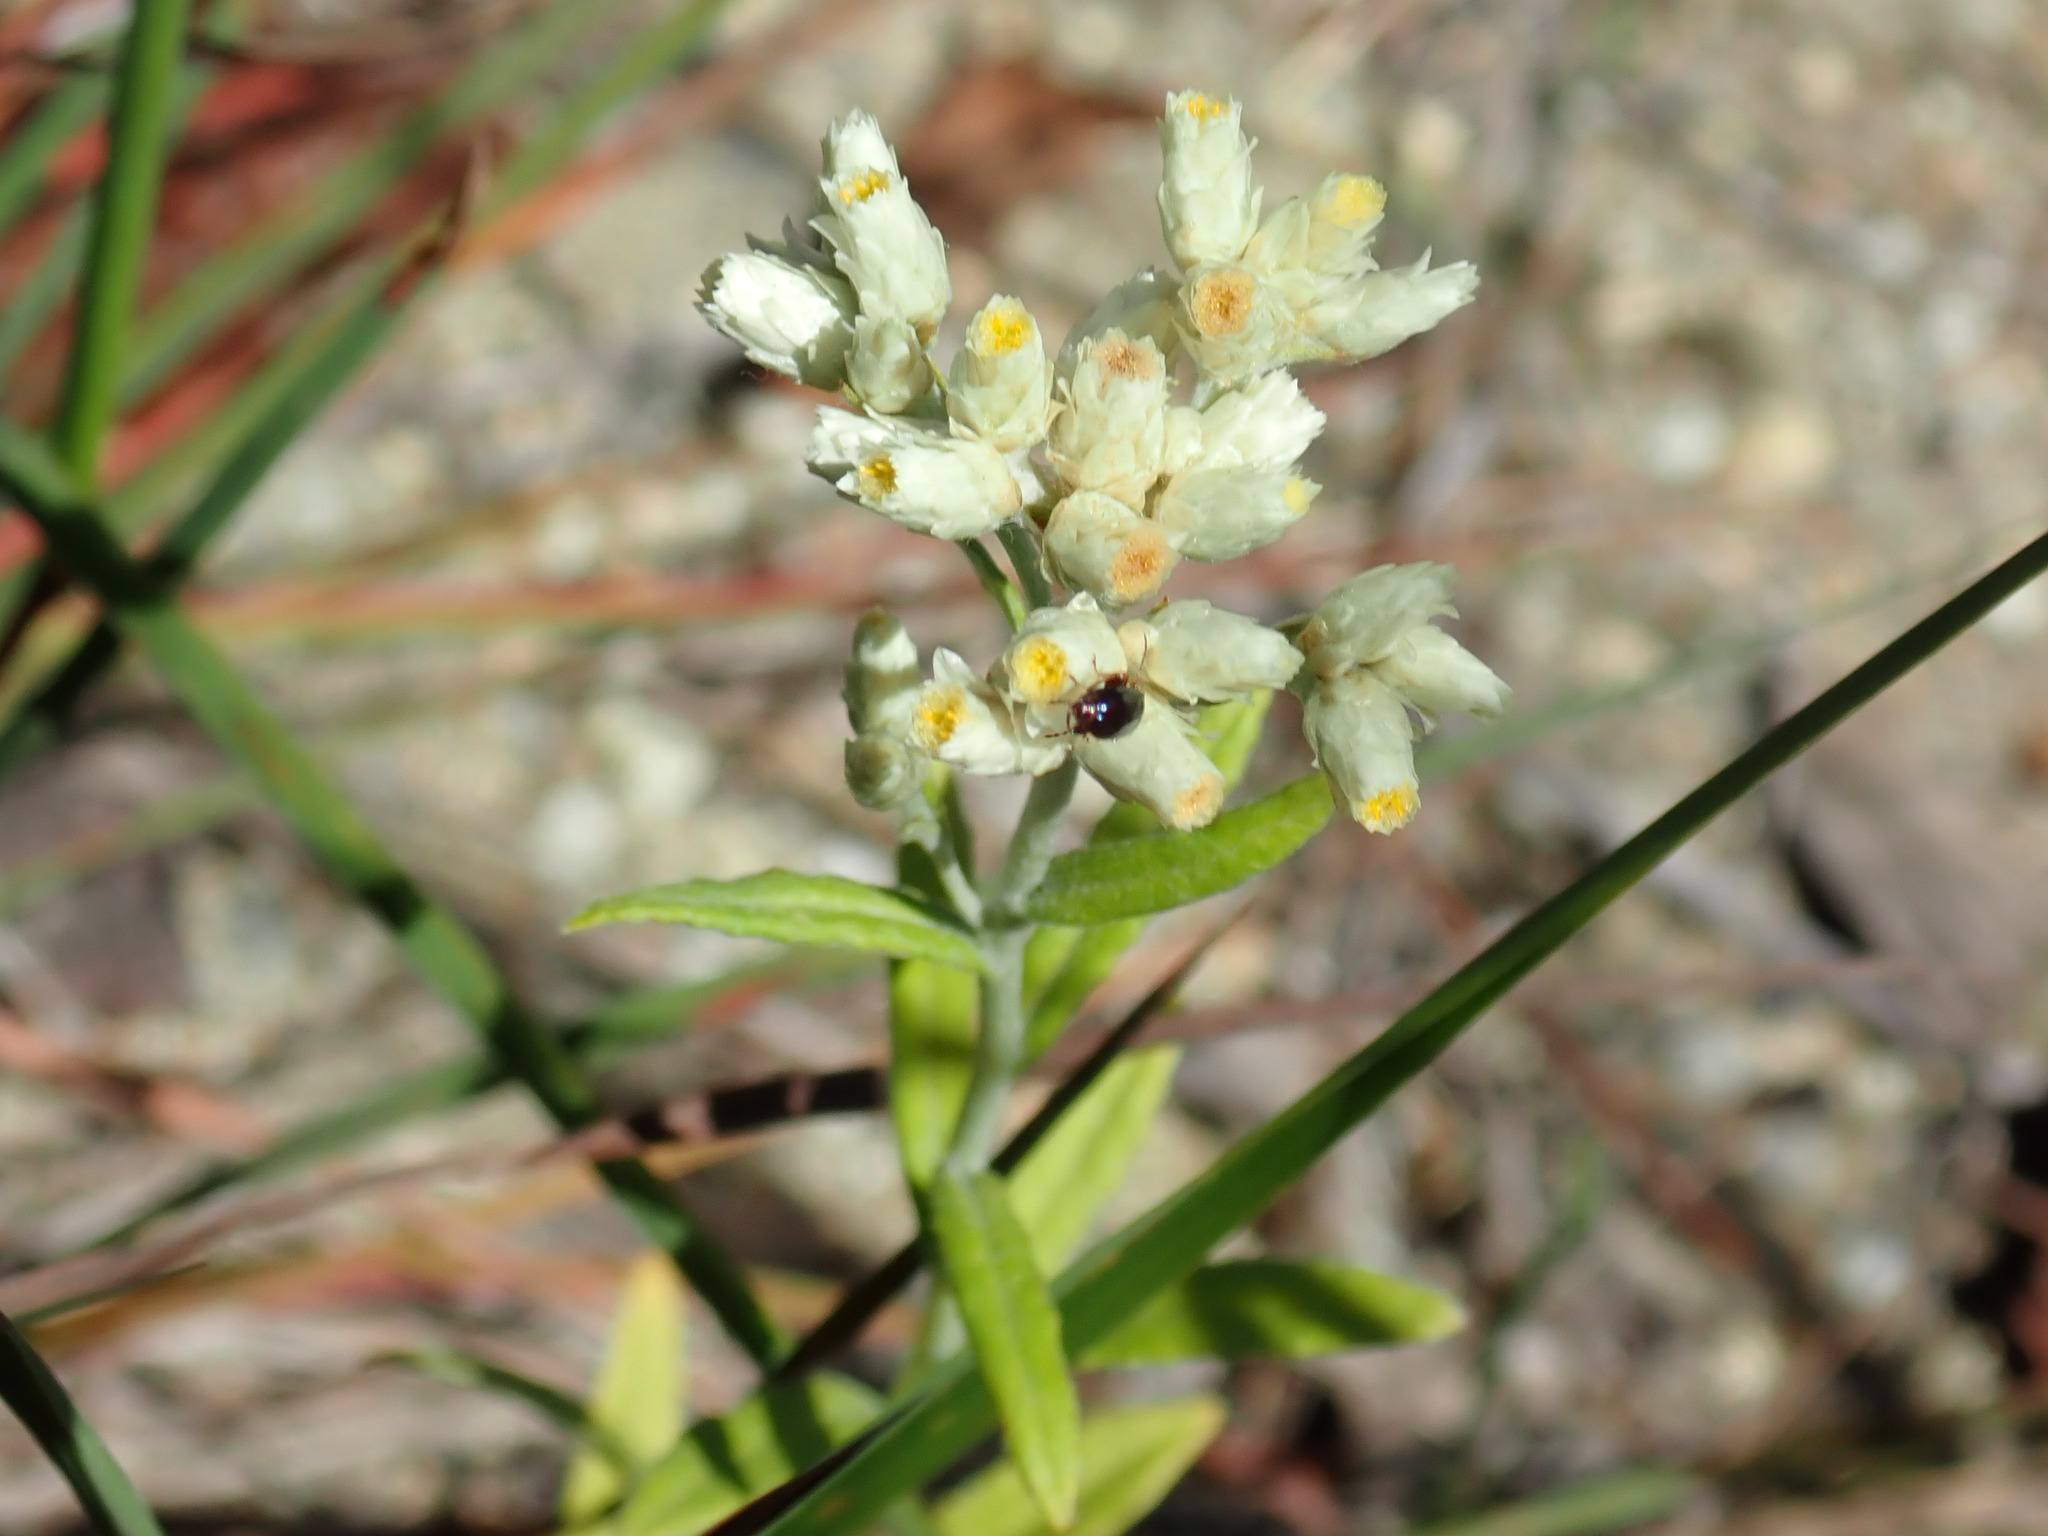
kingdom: Plantae
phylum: Tracheophyta
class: Magnoliopsida
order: Asterales
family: Asteraceae
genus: Pseudognaphalium
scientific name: Pseudognaphalium obtusifolium
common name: Eastern rabbit-tobacco
